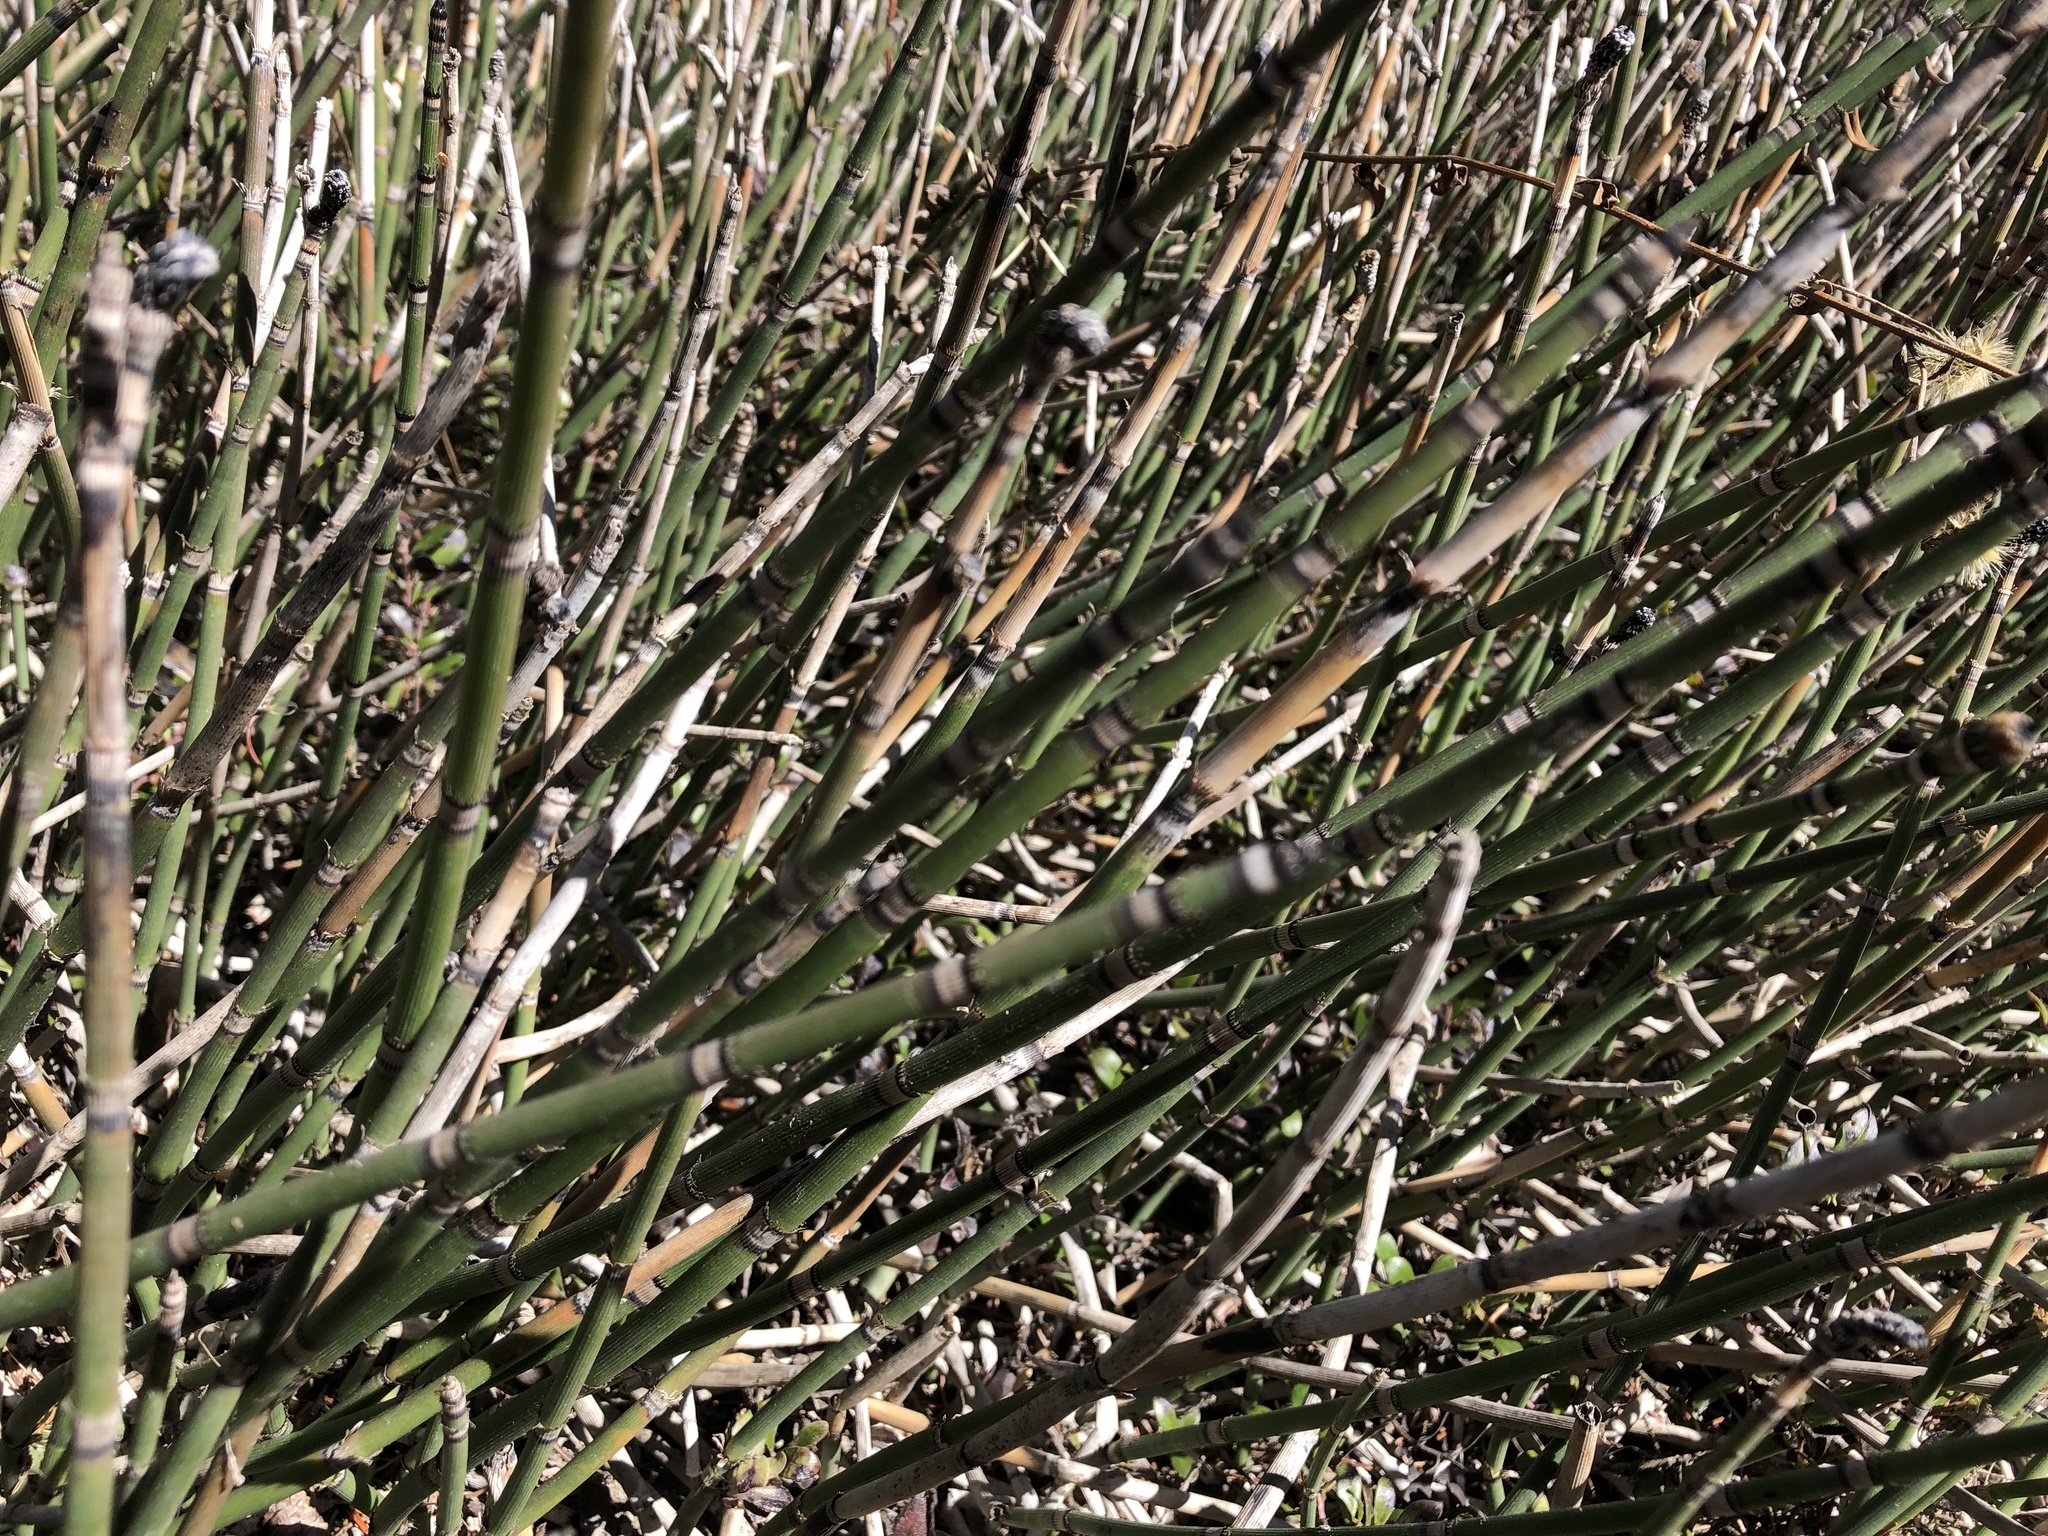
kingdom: Plantae
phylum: Tracheophyta
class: Polypodiopsida
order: Equisetales
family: Equisetaceae
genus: Equisetum
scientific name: Equisetum hyemale
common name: Rough horsetail
